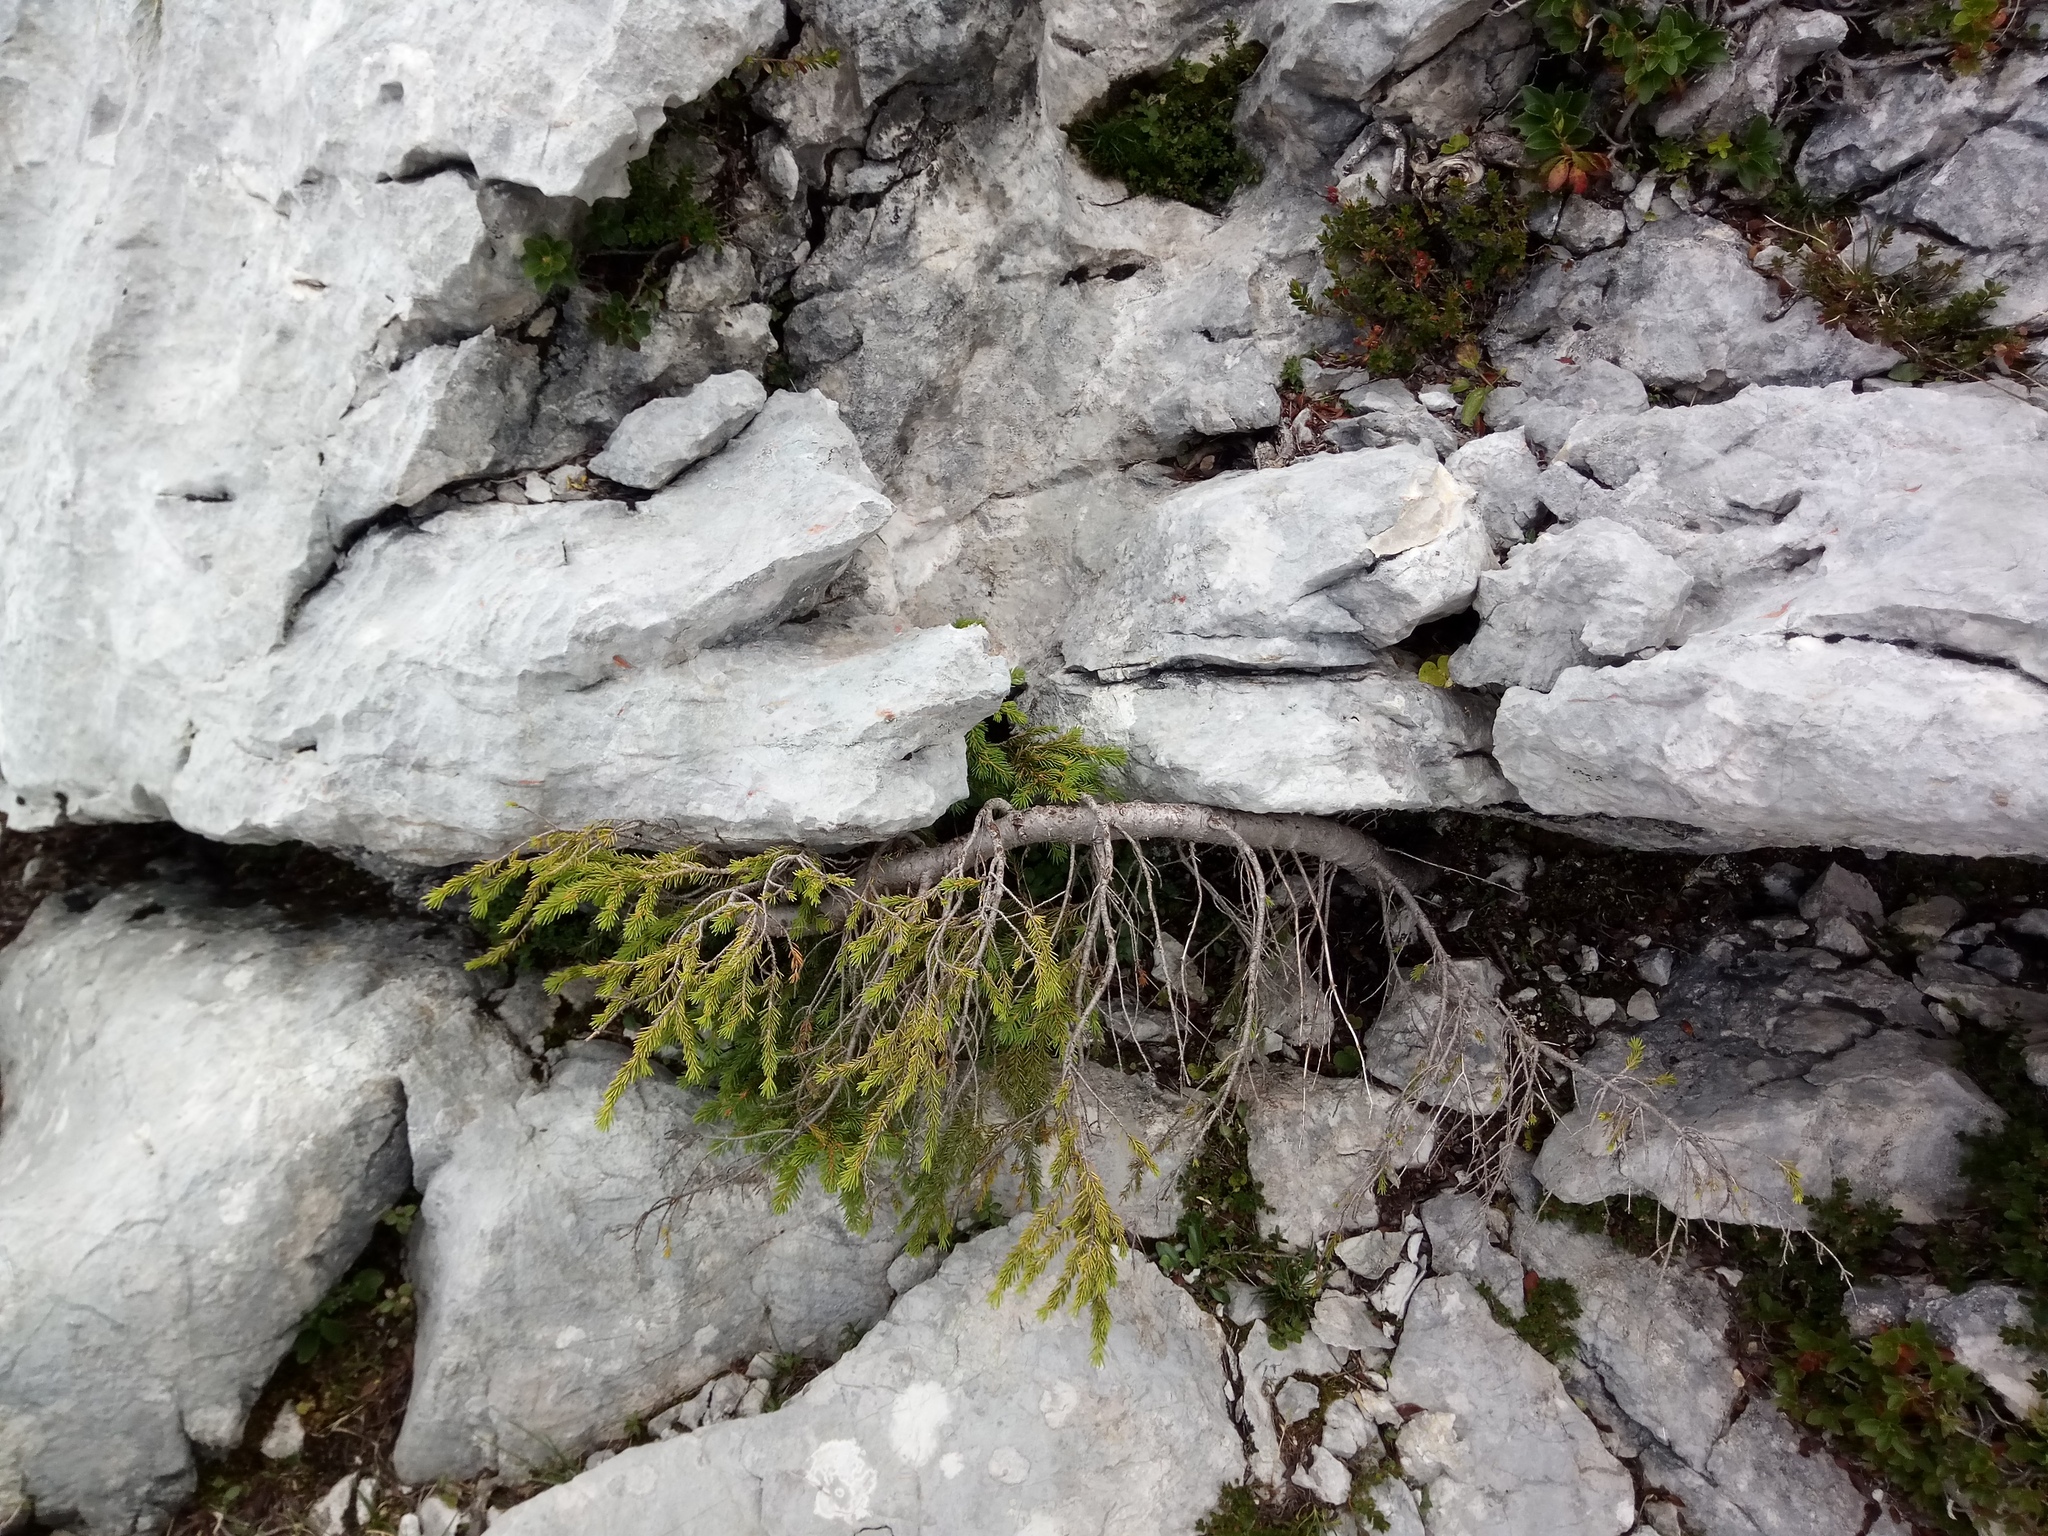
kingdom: Plantae
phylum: Tracheophyta
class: Pinopsida
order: Pinales
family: Pinaceae
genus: Picea
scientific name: Picea abies
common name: Norway spruce
